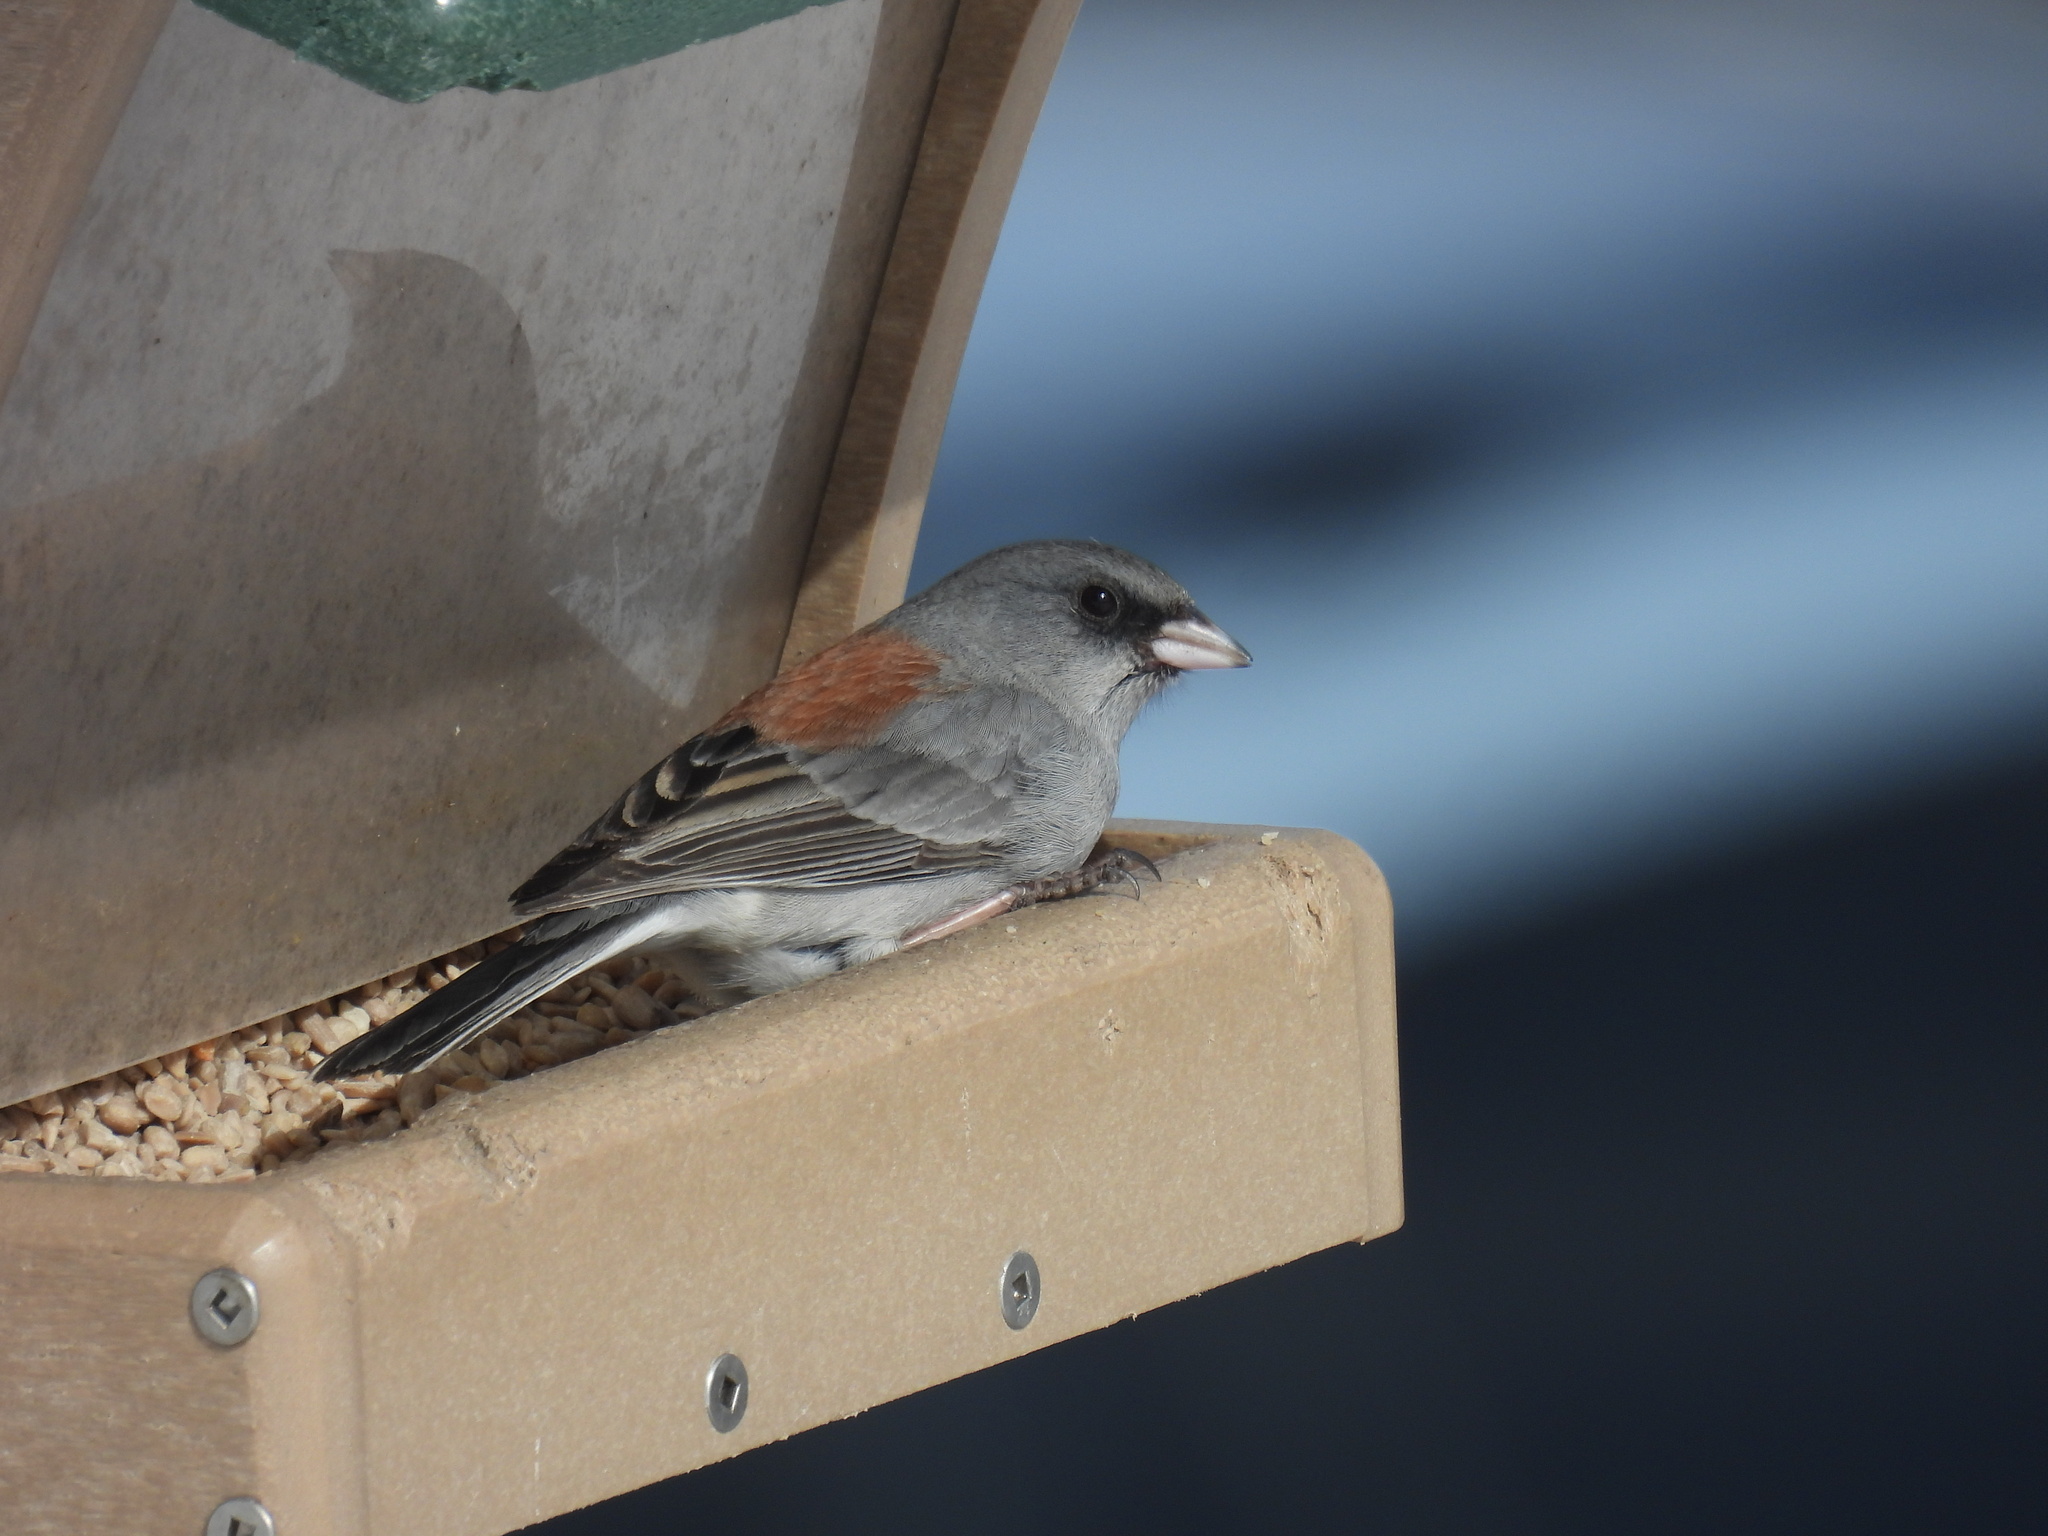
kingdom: Animalia
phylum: Chordata
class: Aves
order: Passeriformes
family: Passerellidae
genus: Junco
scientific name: Junco hyemalis
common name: Dark-eyed junco
